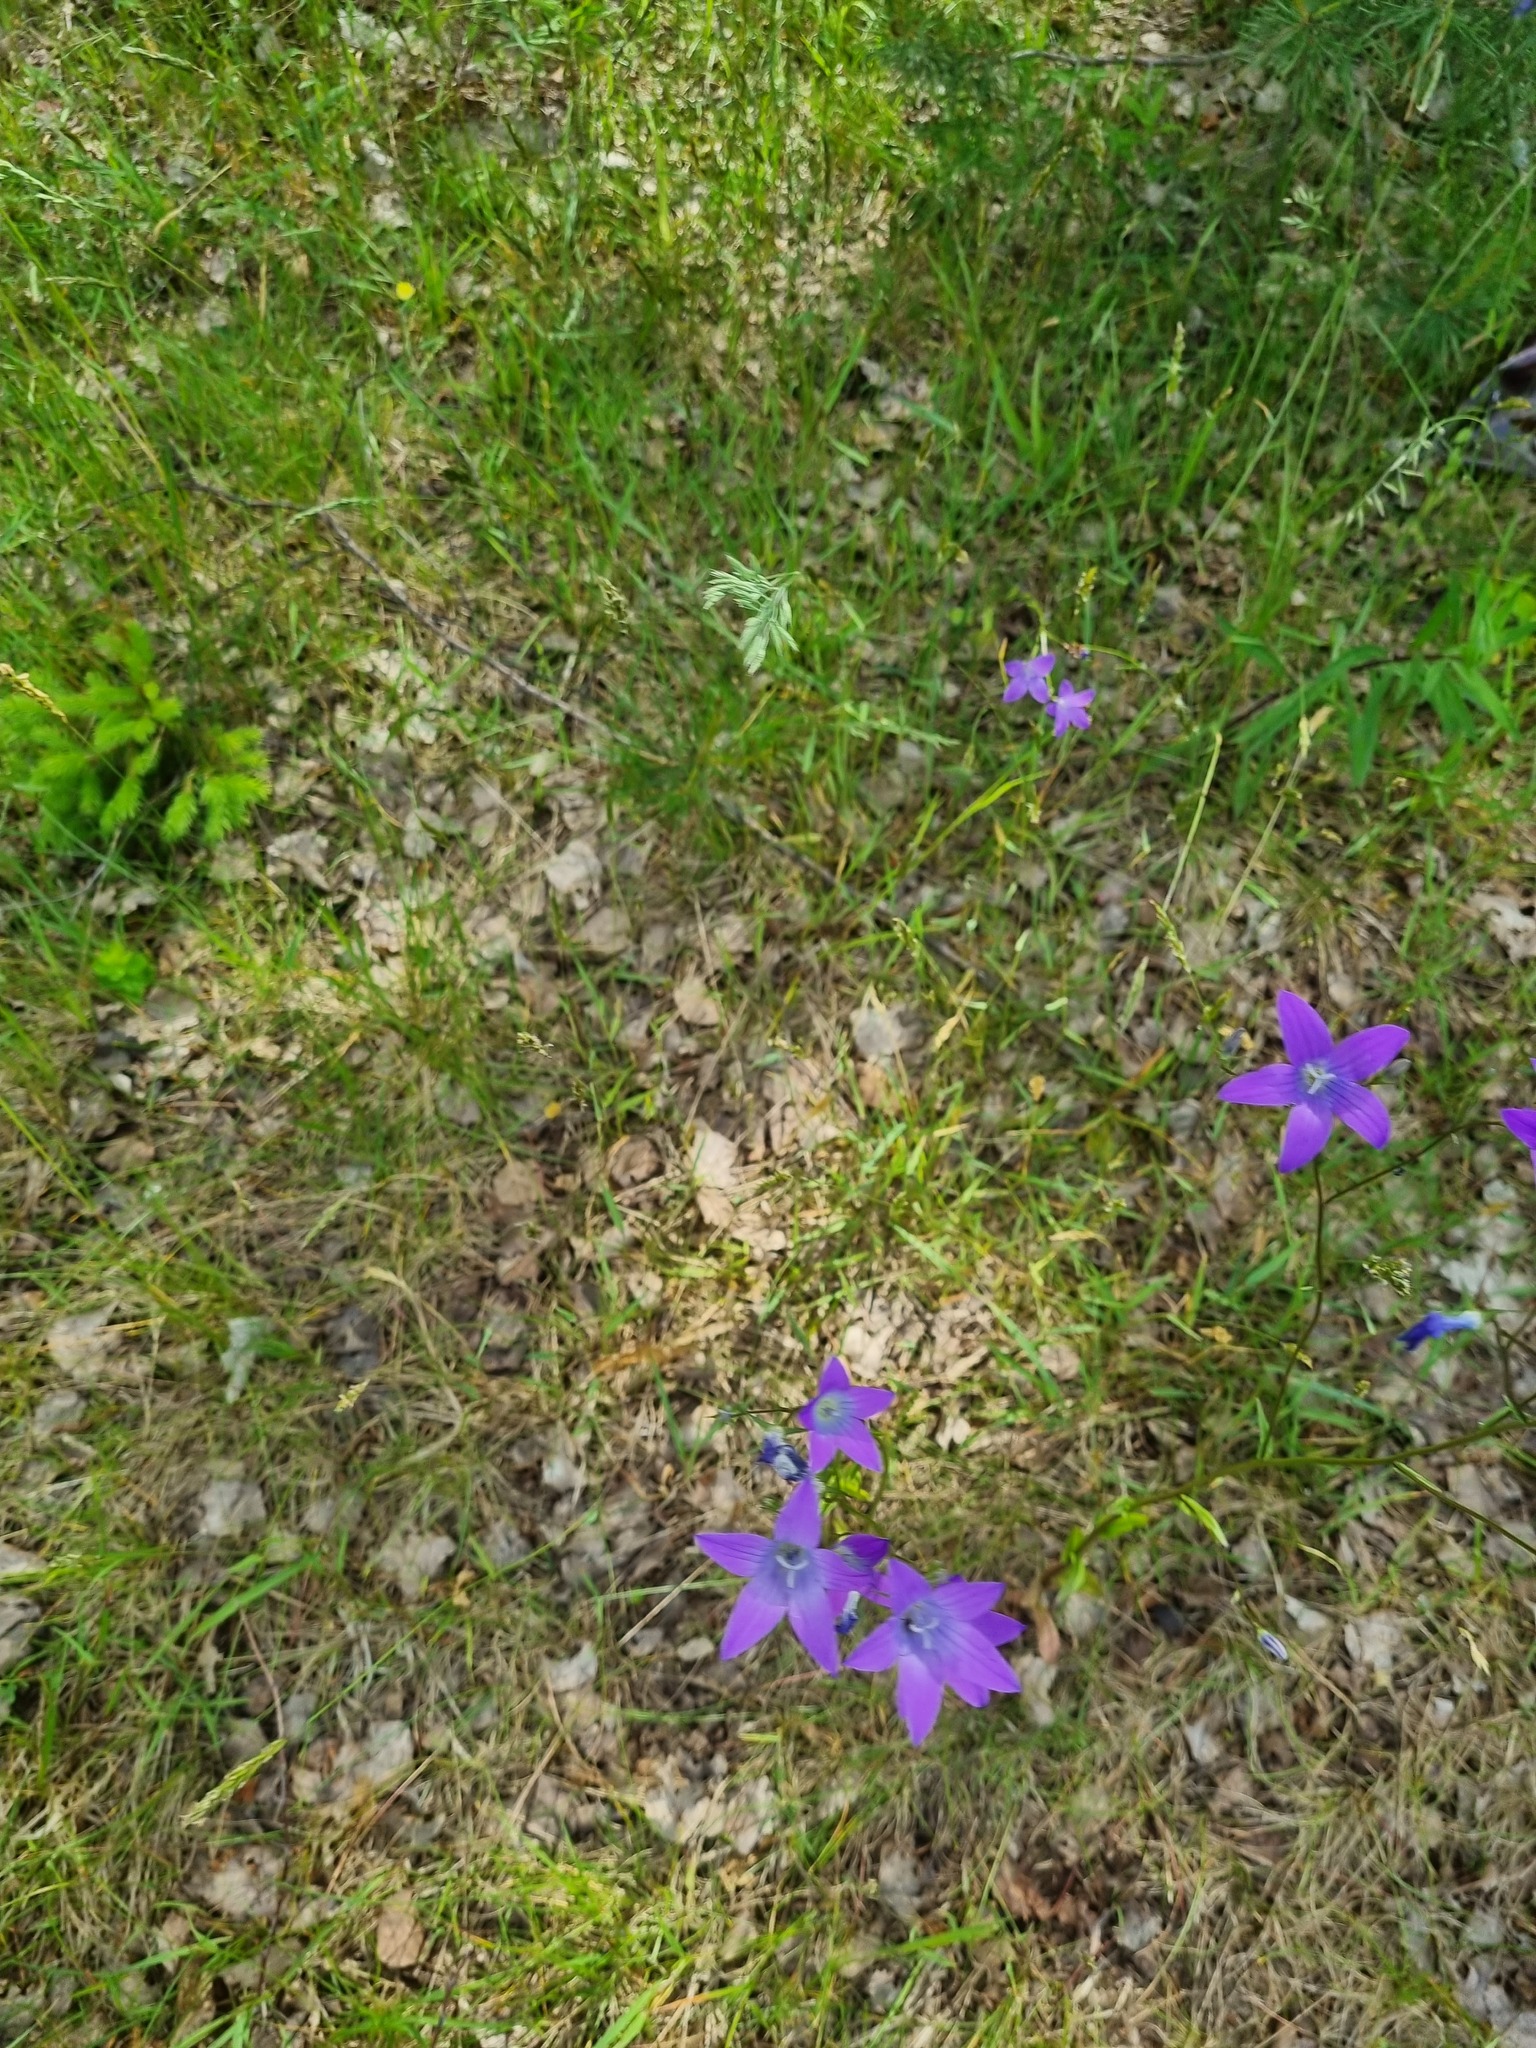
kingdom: Plantae
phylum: Tracheophyta
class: Magnoliopsida
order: Asterales
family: Campanulaceae
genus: Campanula
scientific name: Campanula patula
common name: Spreading bellflower
